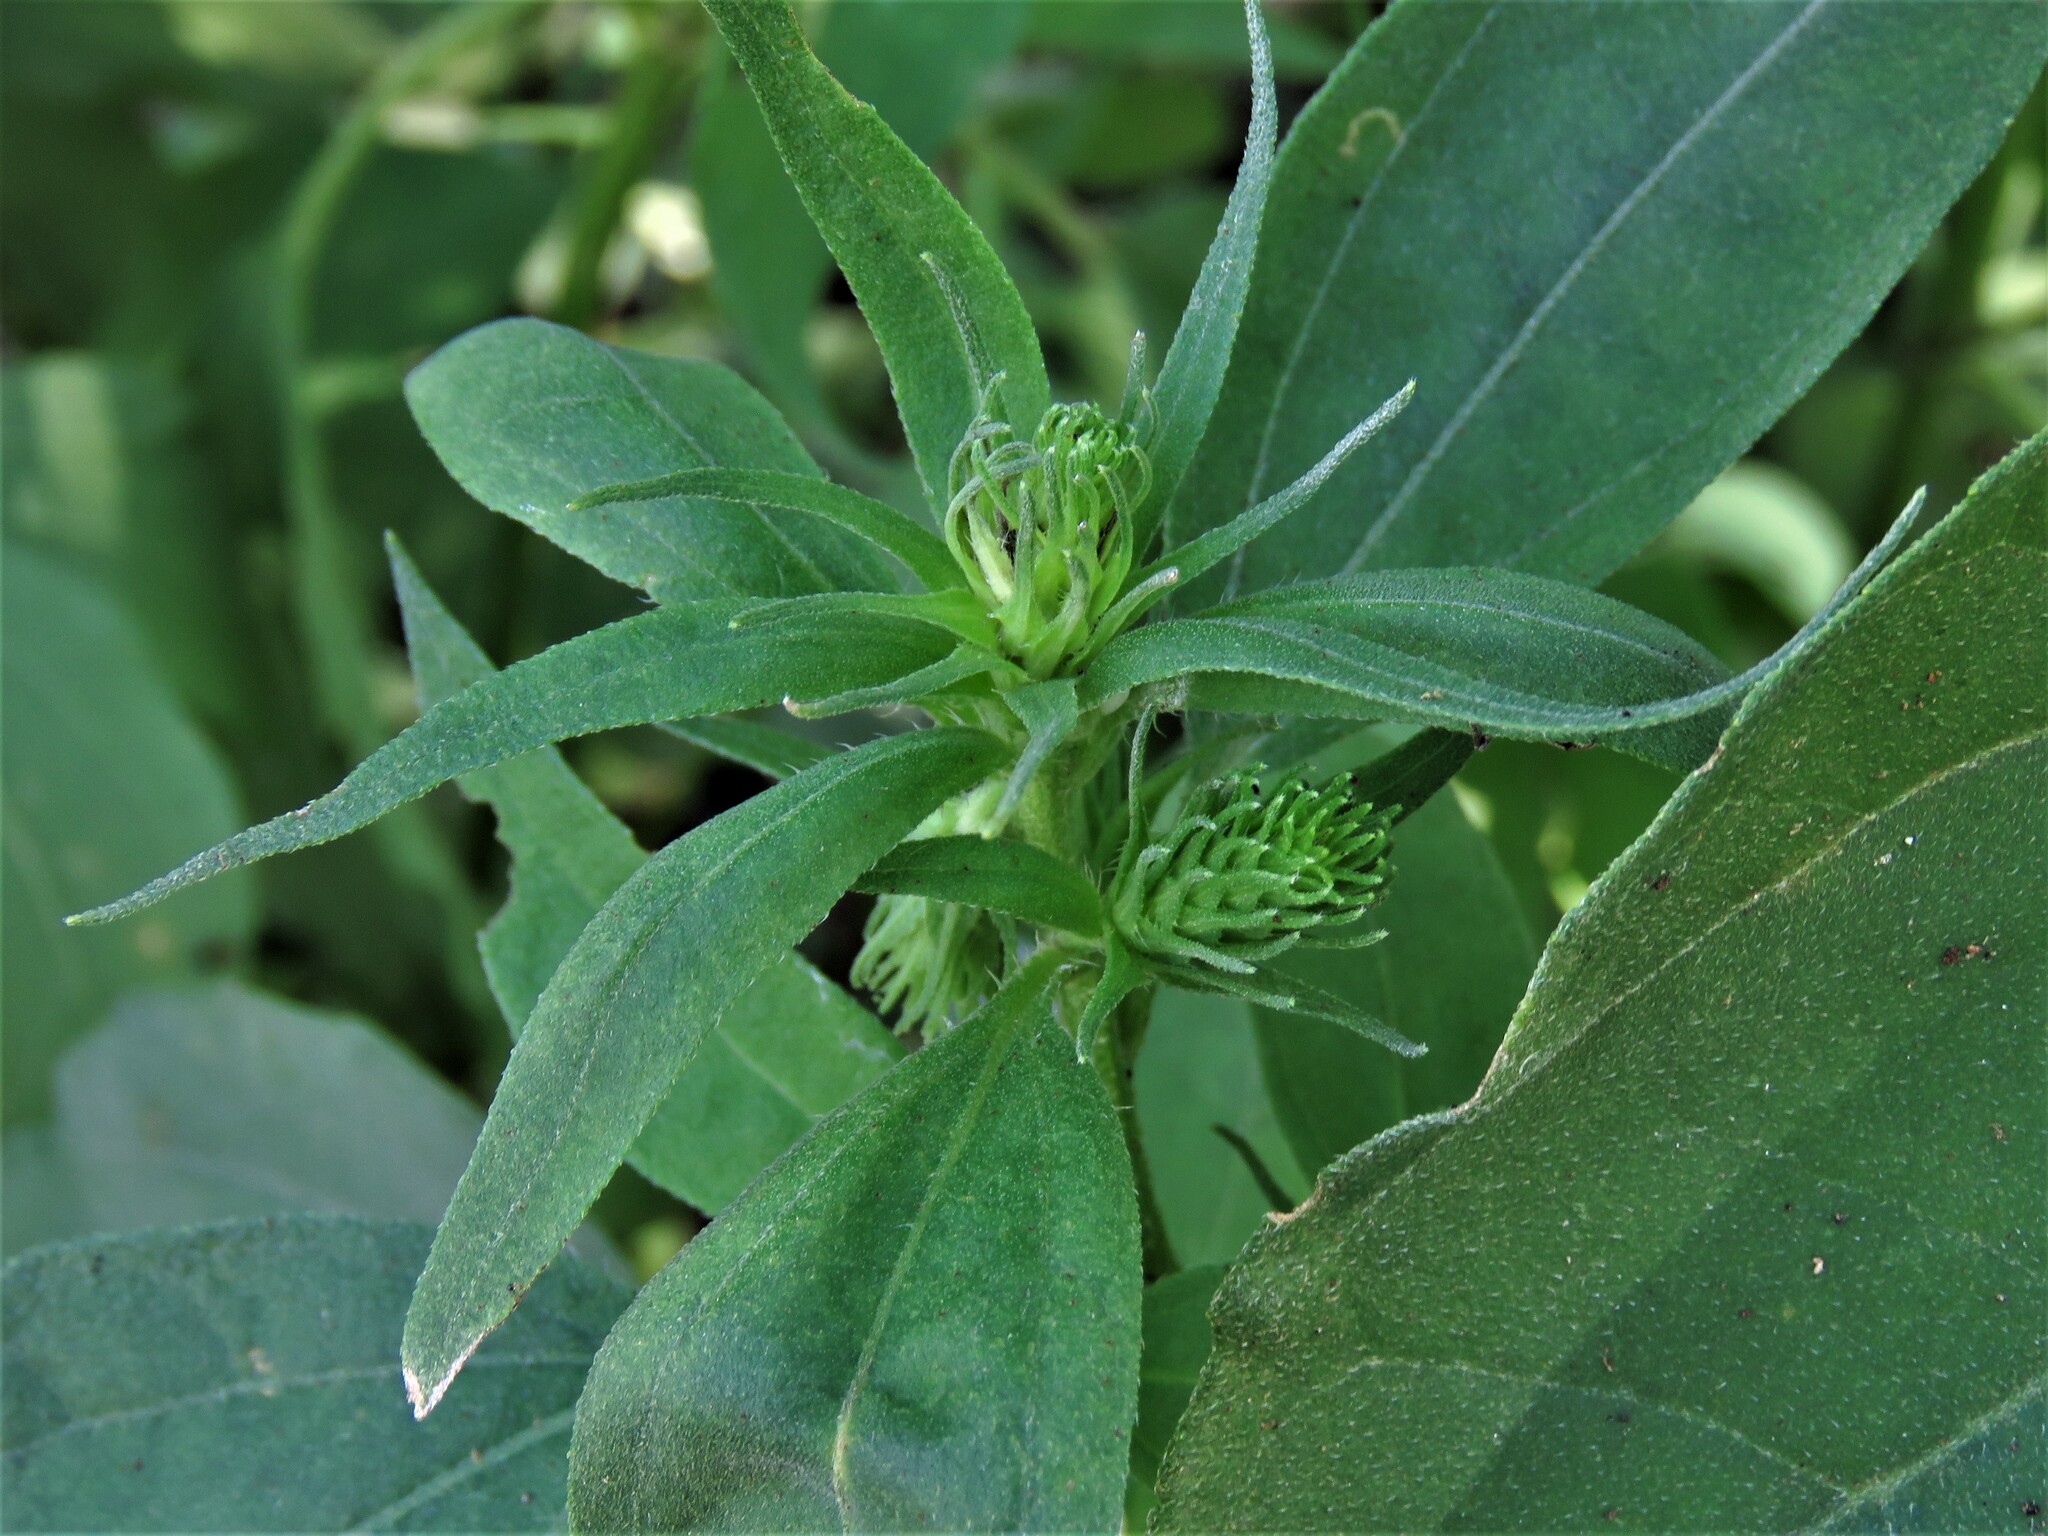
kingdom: Plantae
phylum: Tracheophyta
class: Magnoliopsida
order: Asterales
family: Asteraceae
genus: Iva
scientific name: Iva annua
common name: Marsh-elder
